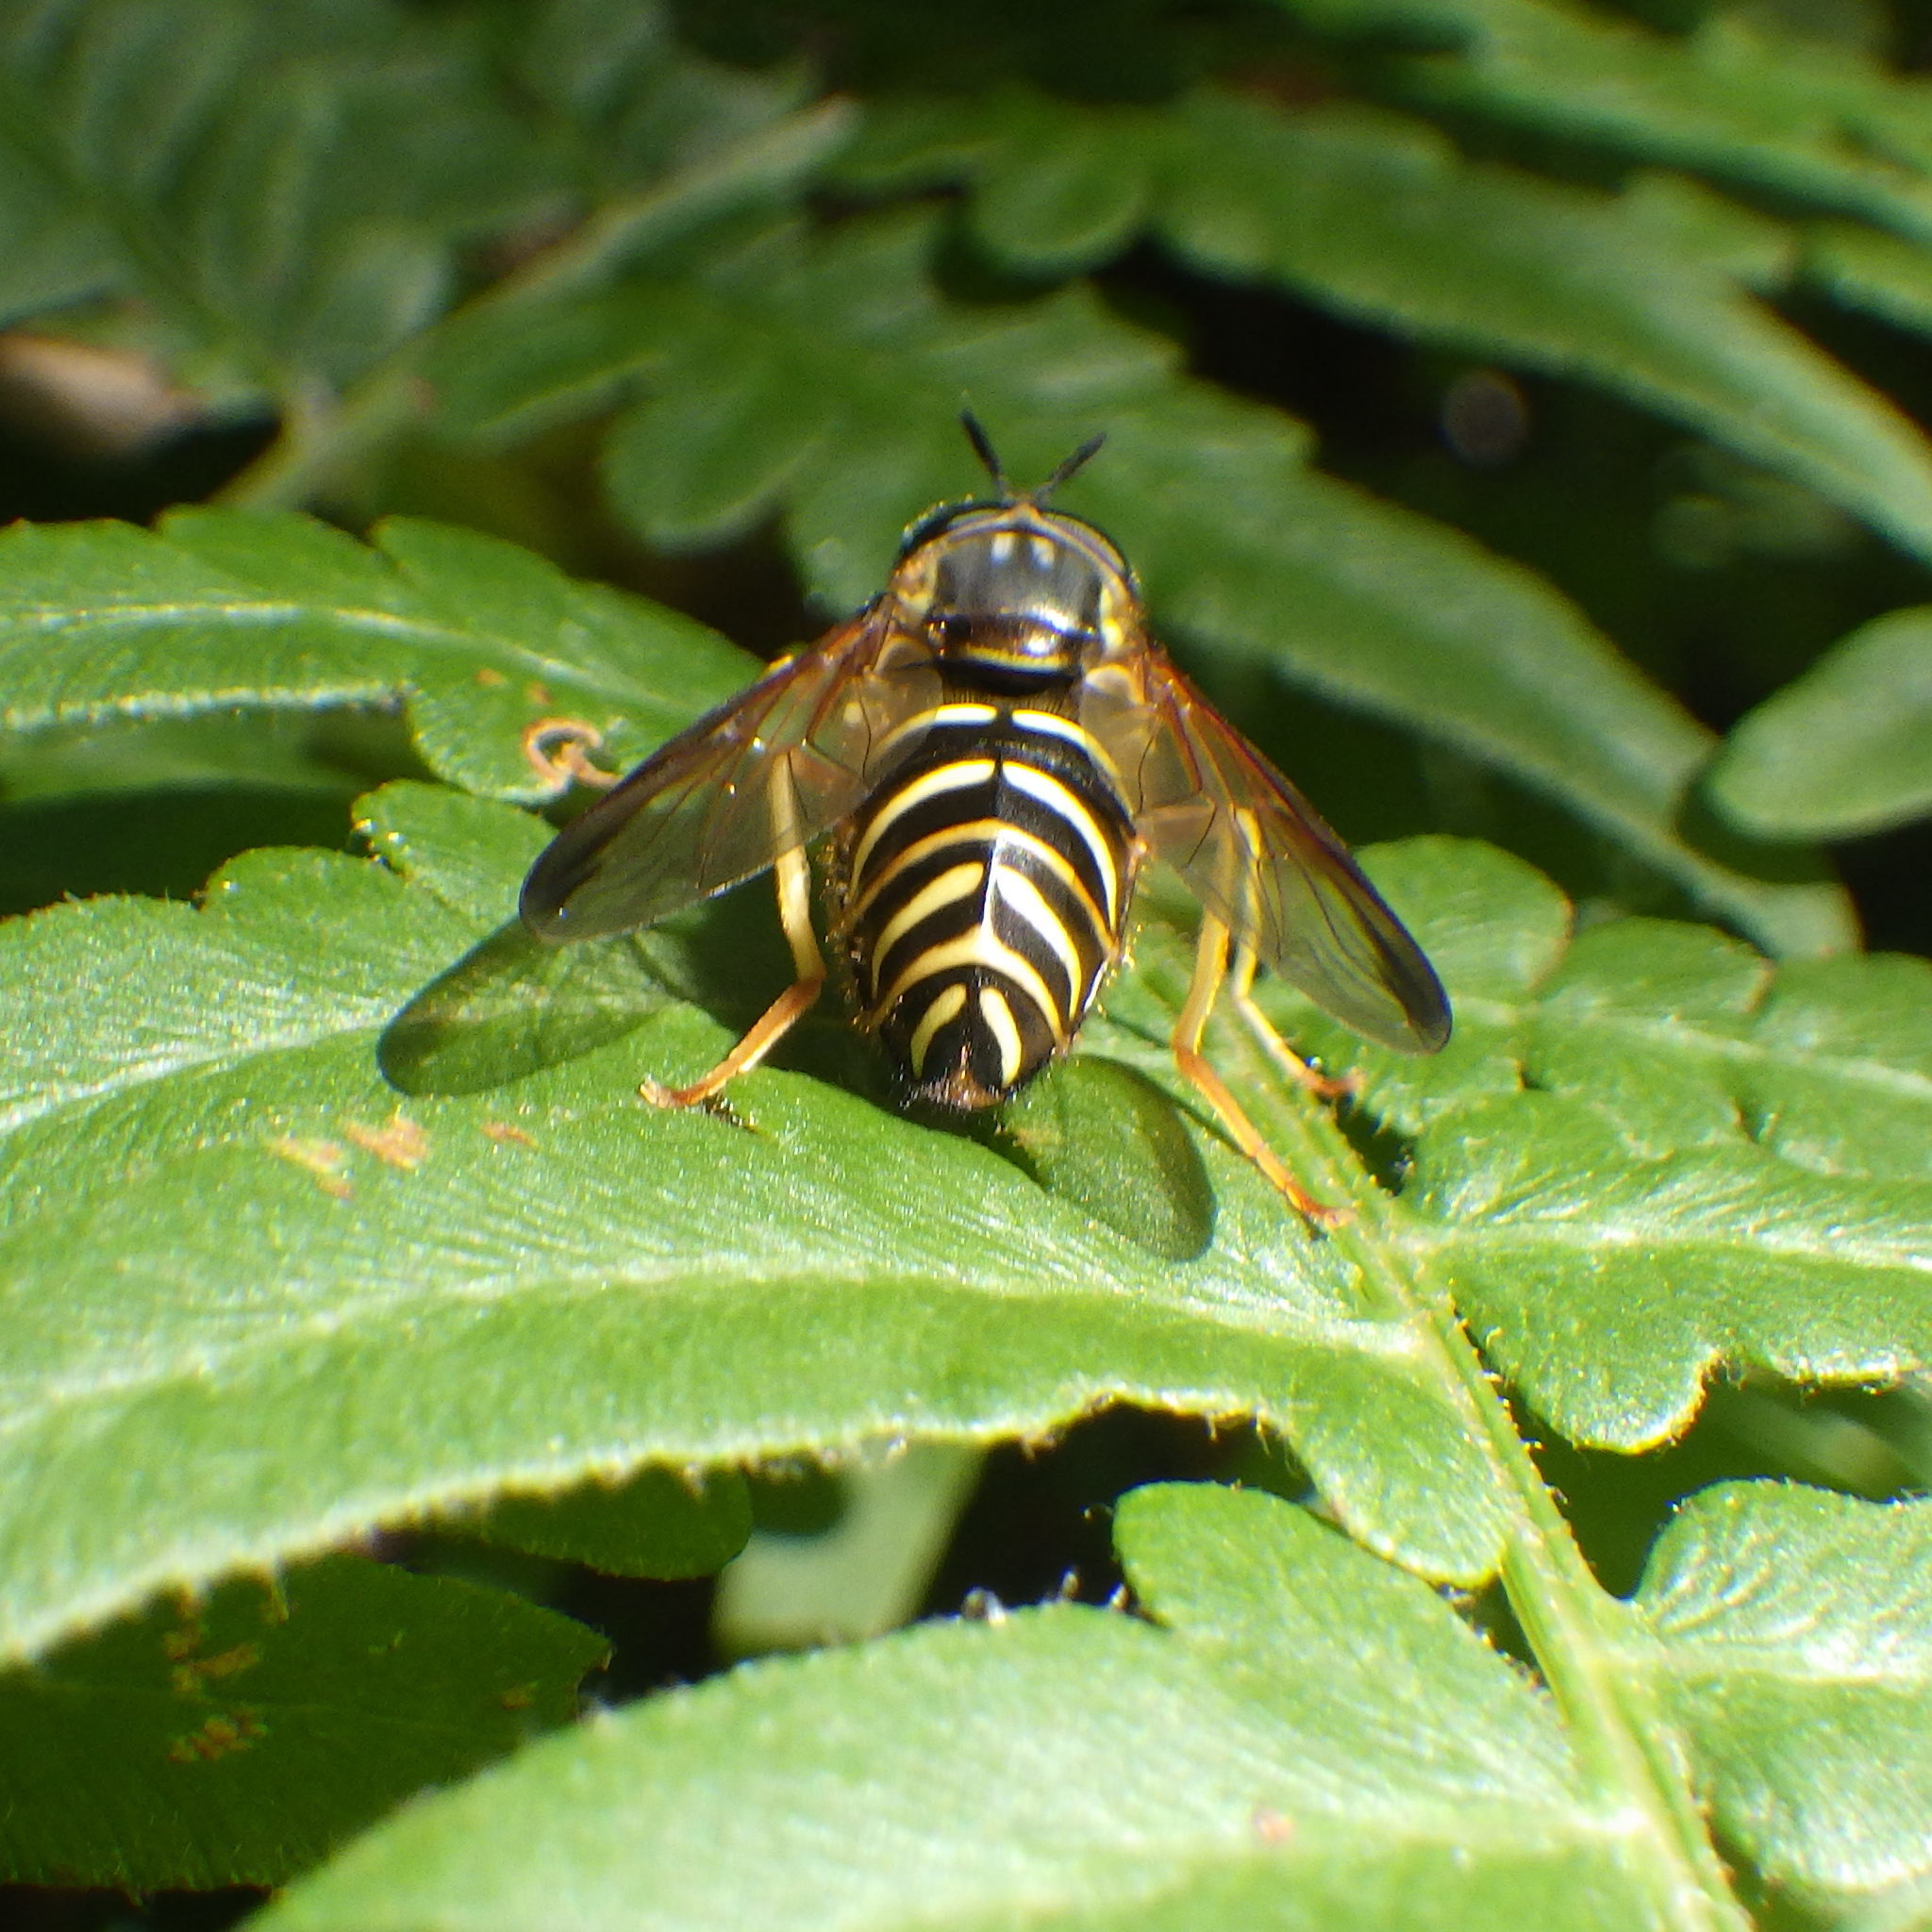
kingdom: Animalia
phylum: Arthropoda
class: Insecta
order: Diptera
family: Syrphidae
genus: Chrysotoxum
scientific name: Chrysotoxum plumeum
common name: Broad-banded meadowfly
